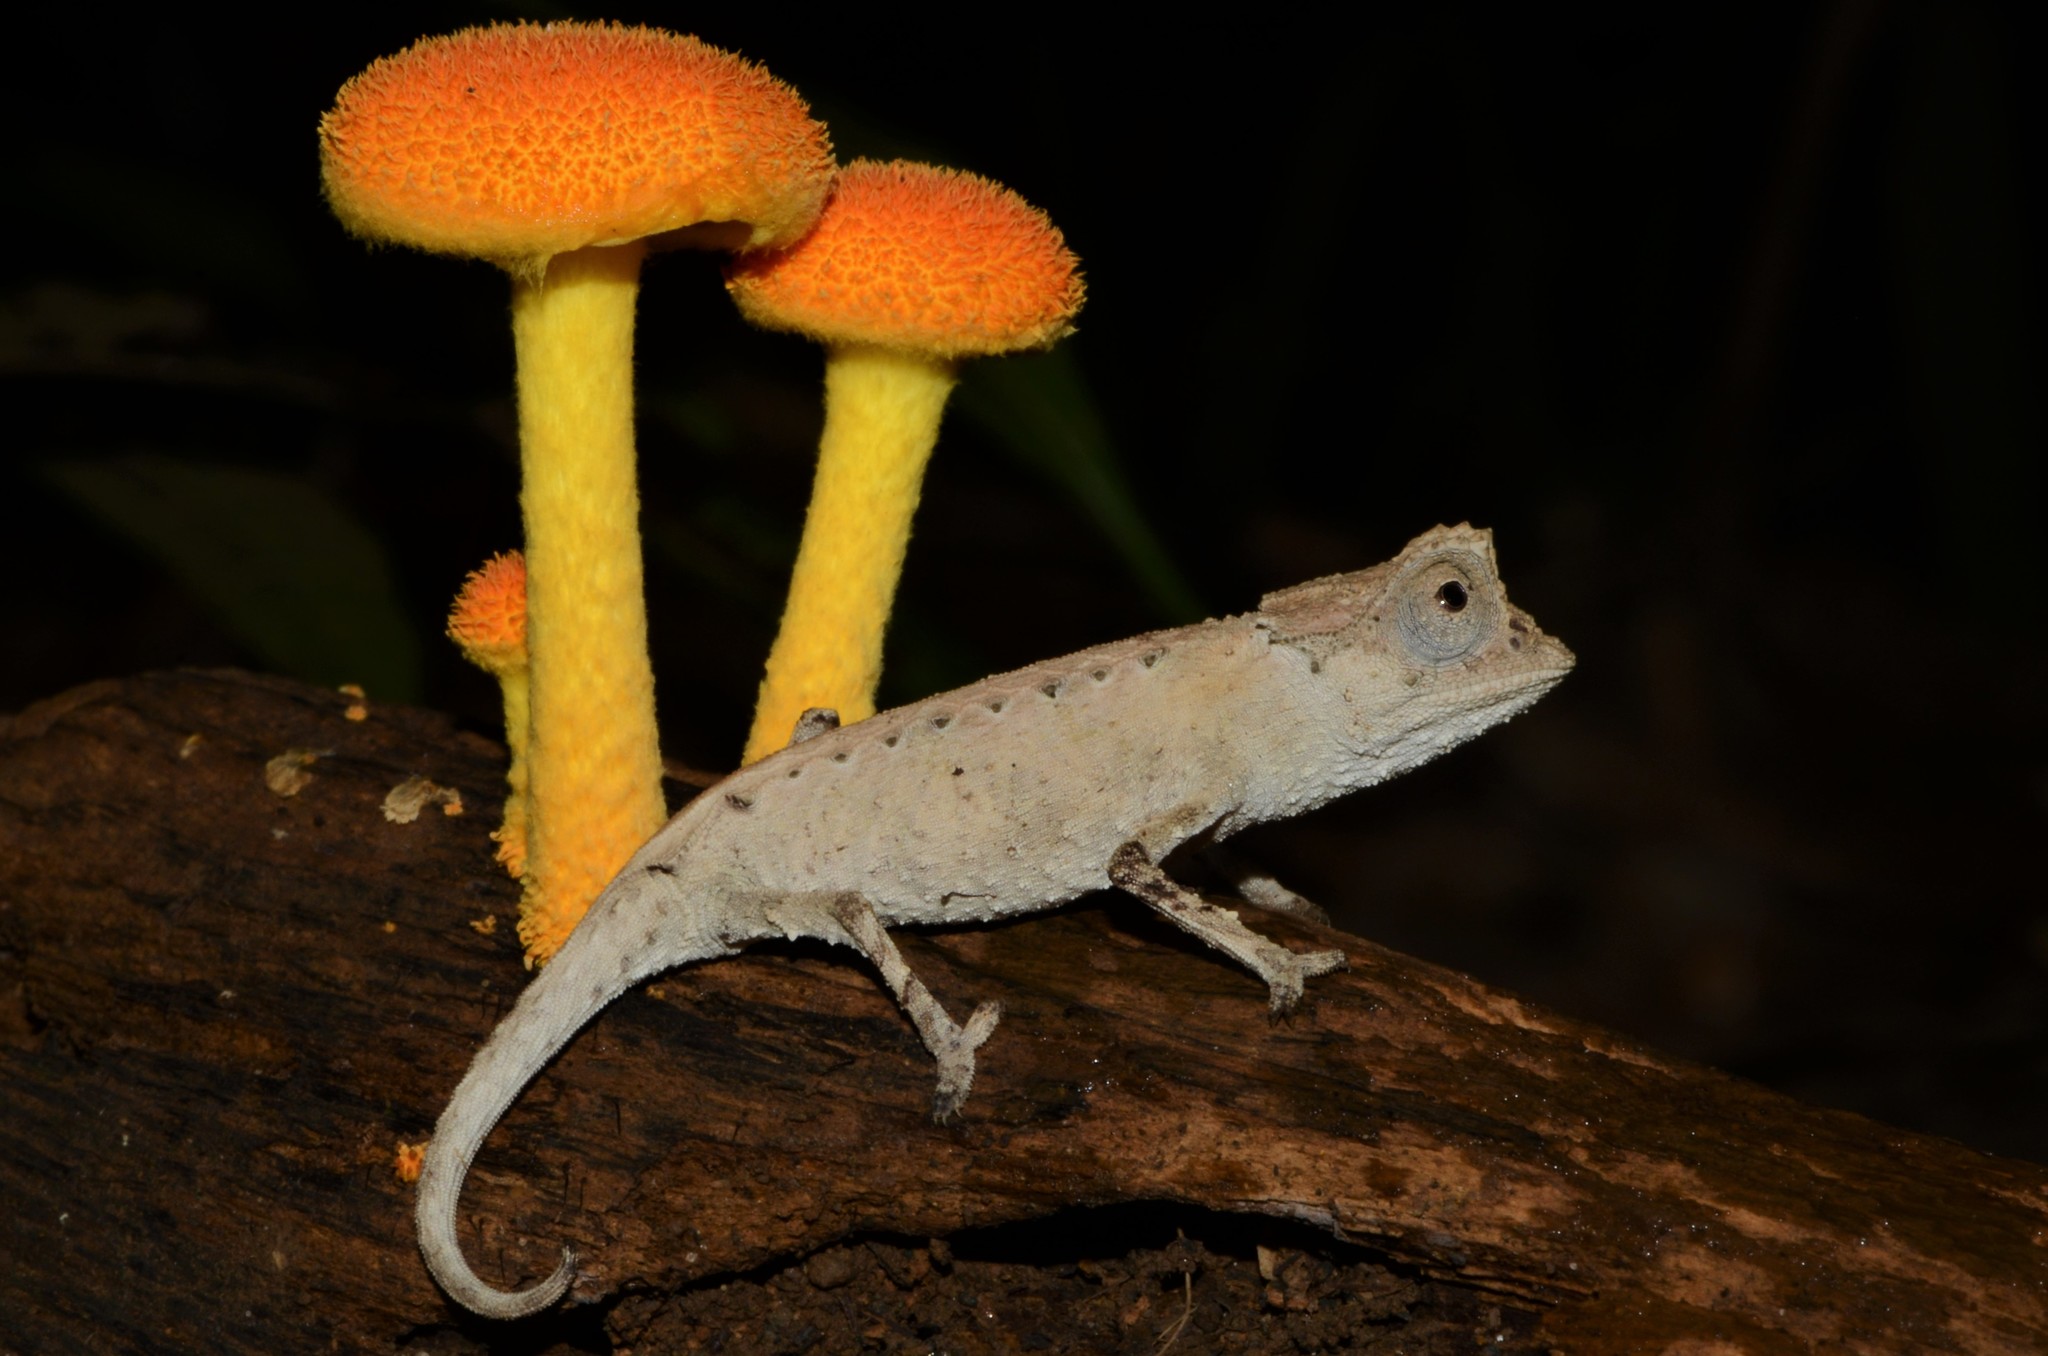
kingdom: Animalia
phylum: Chordata
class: Squamata
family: Chamaeleonidae
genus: Brookesia
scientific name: Brookesia stumpffi
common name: Plated leaf chameleon
